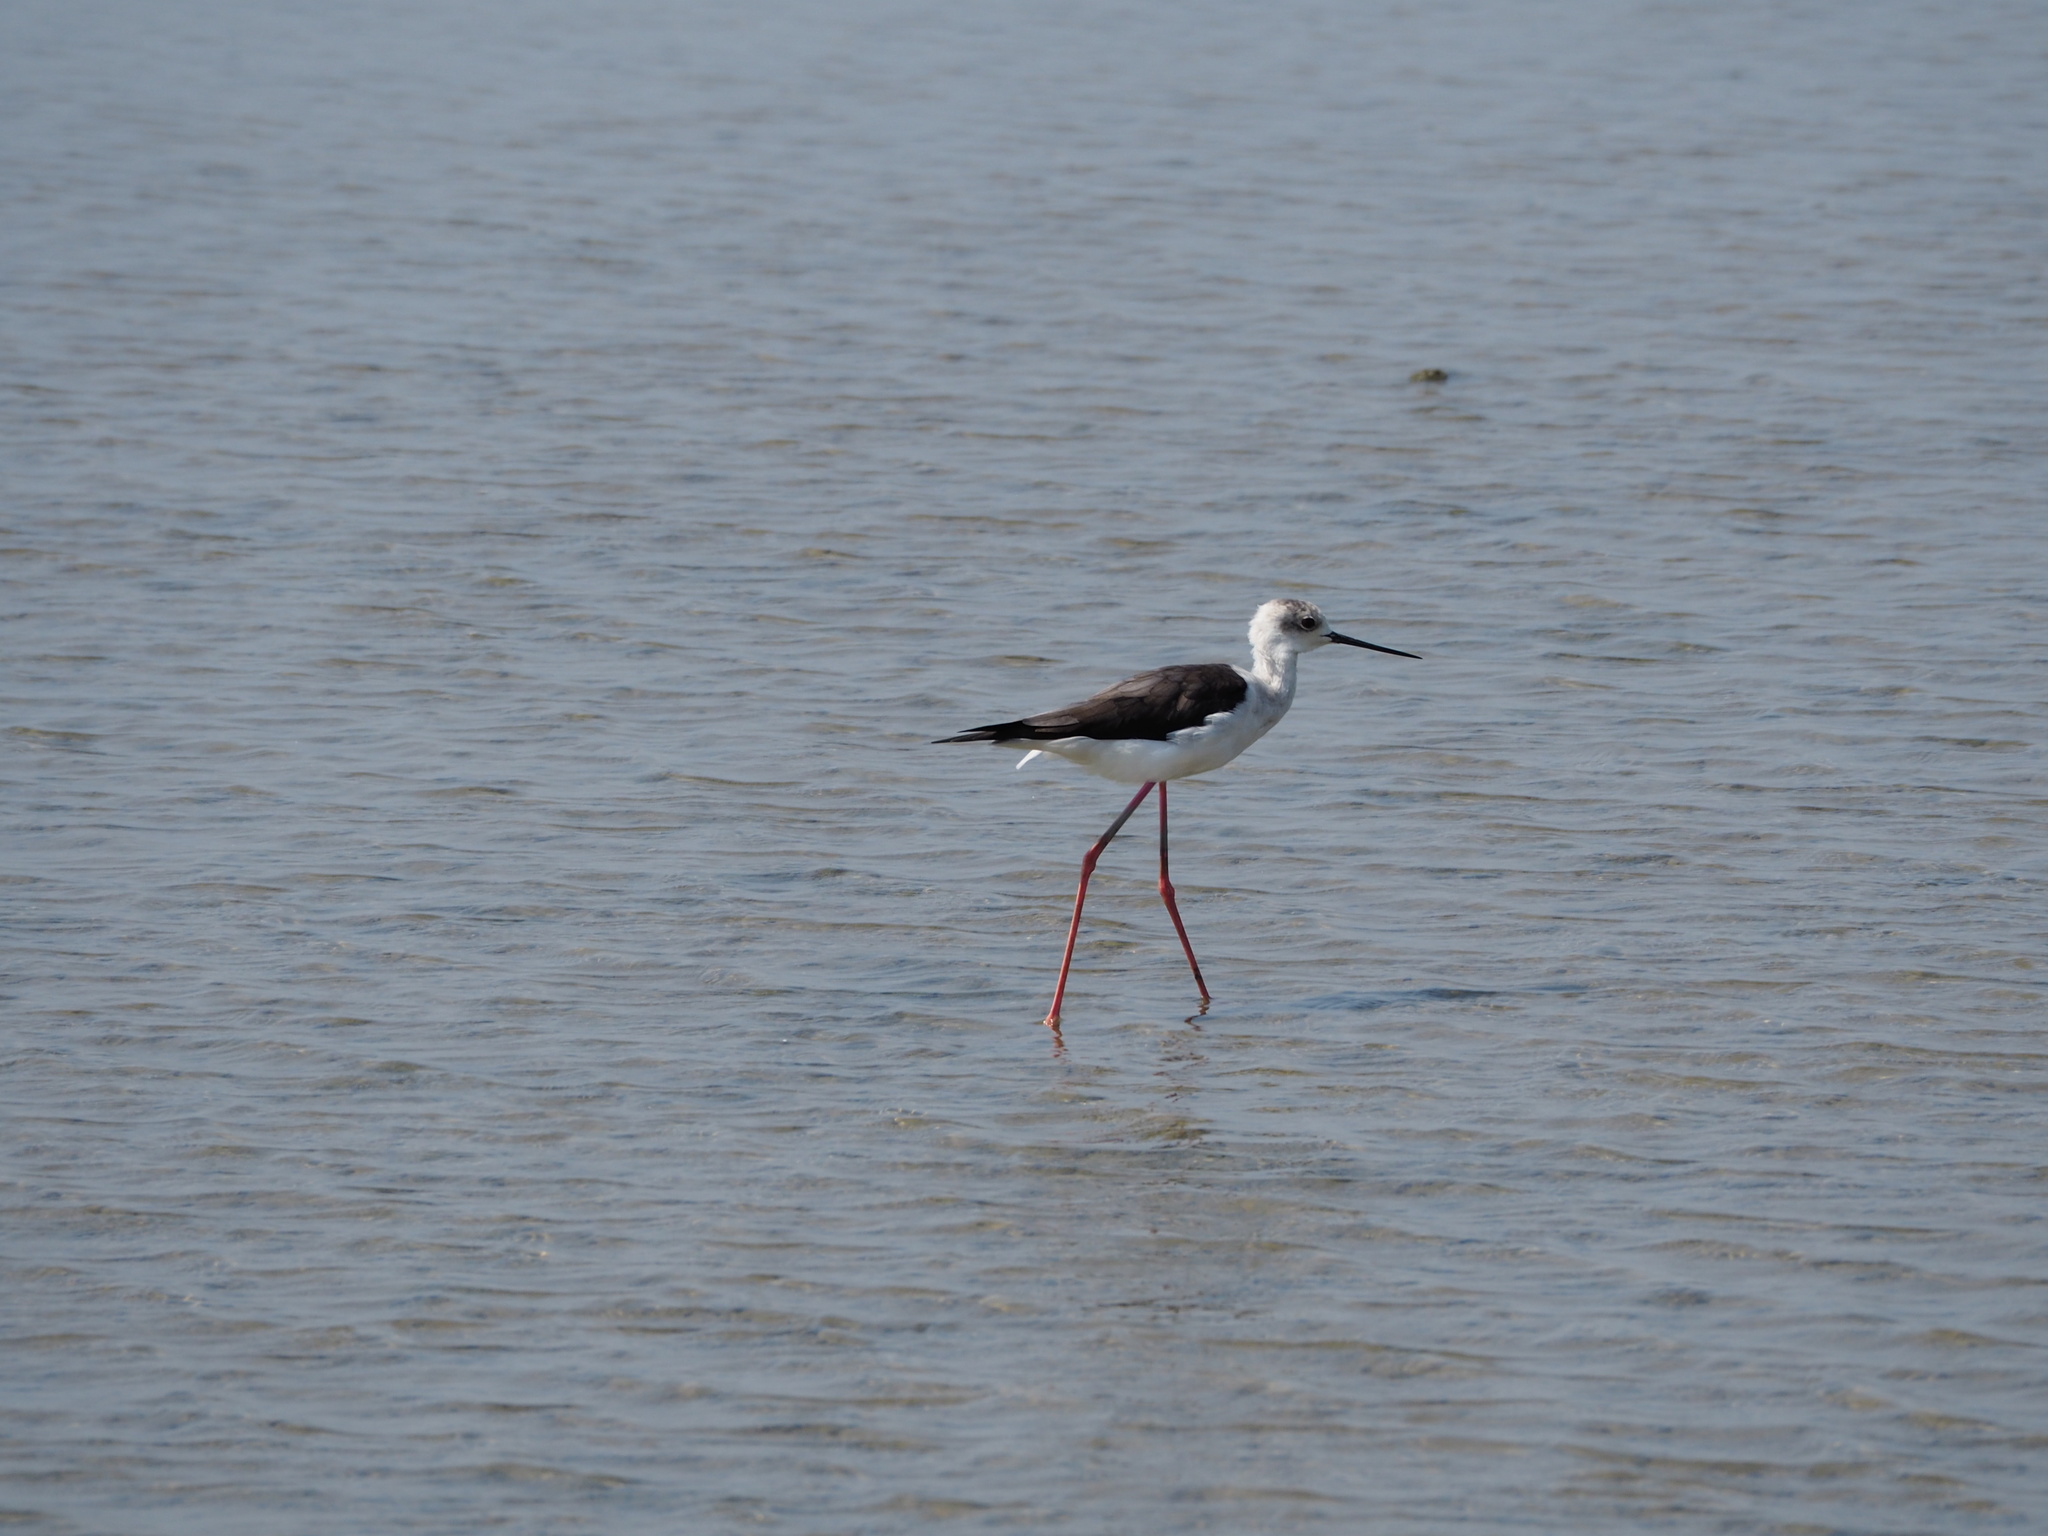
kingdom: Animalia
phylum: Chordata
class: Aves
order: Charadriiformes
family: Recurvirostridae
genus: Himantopus
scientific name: Himantopus himantopus
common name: Black-winged stilt
